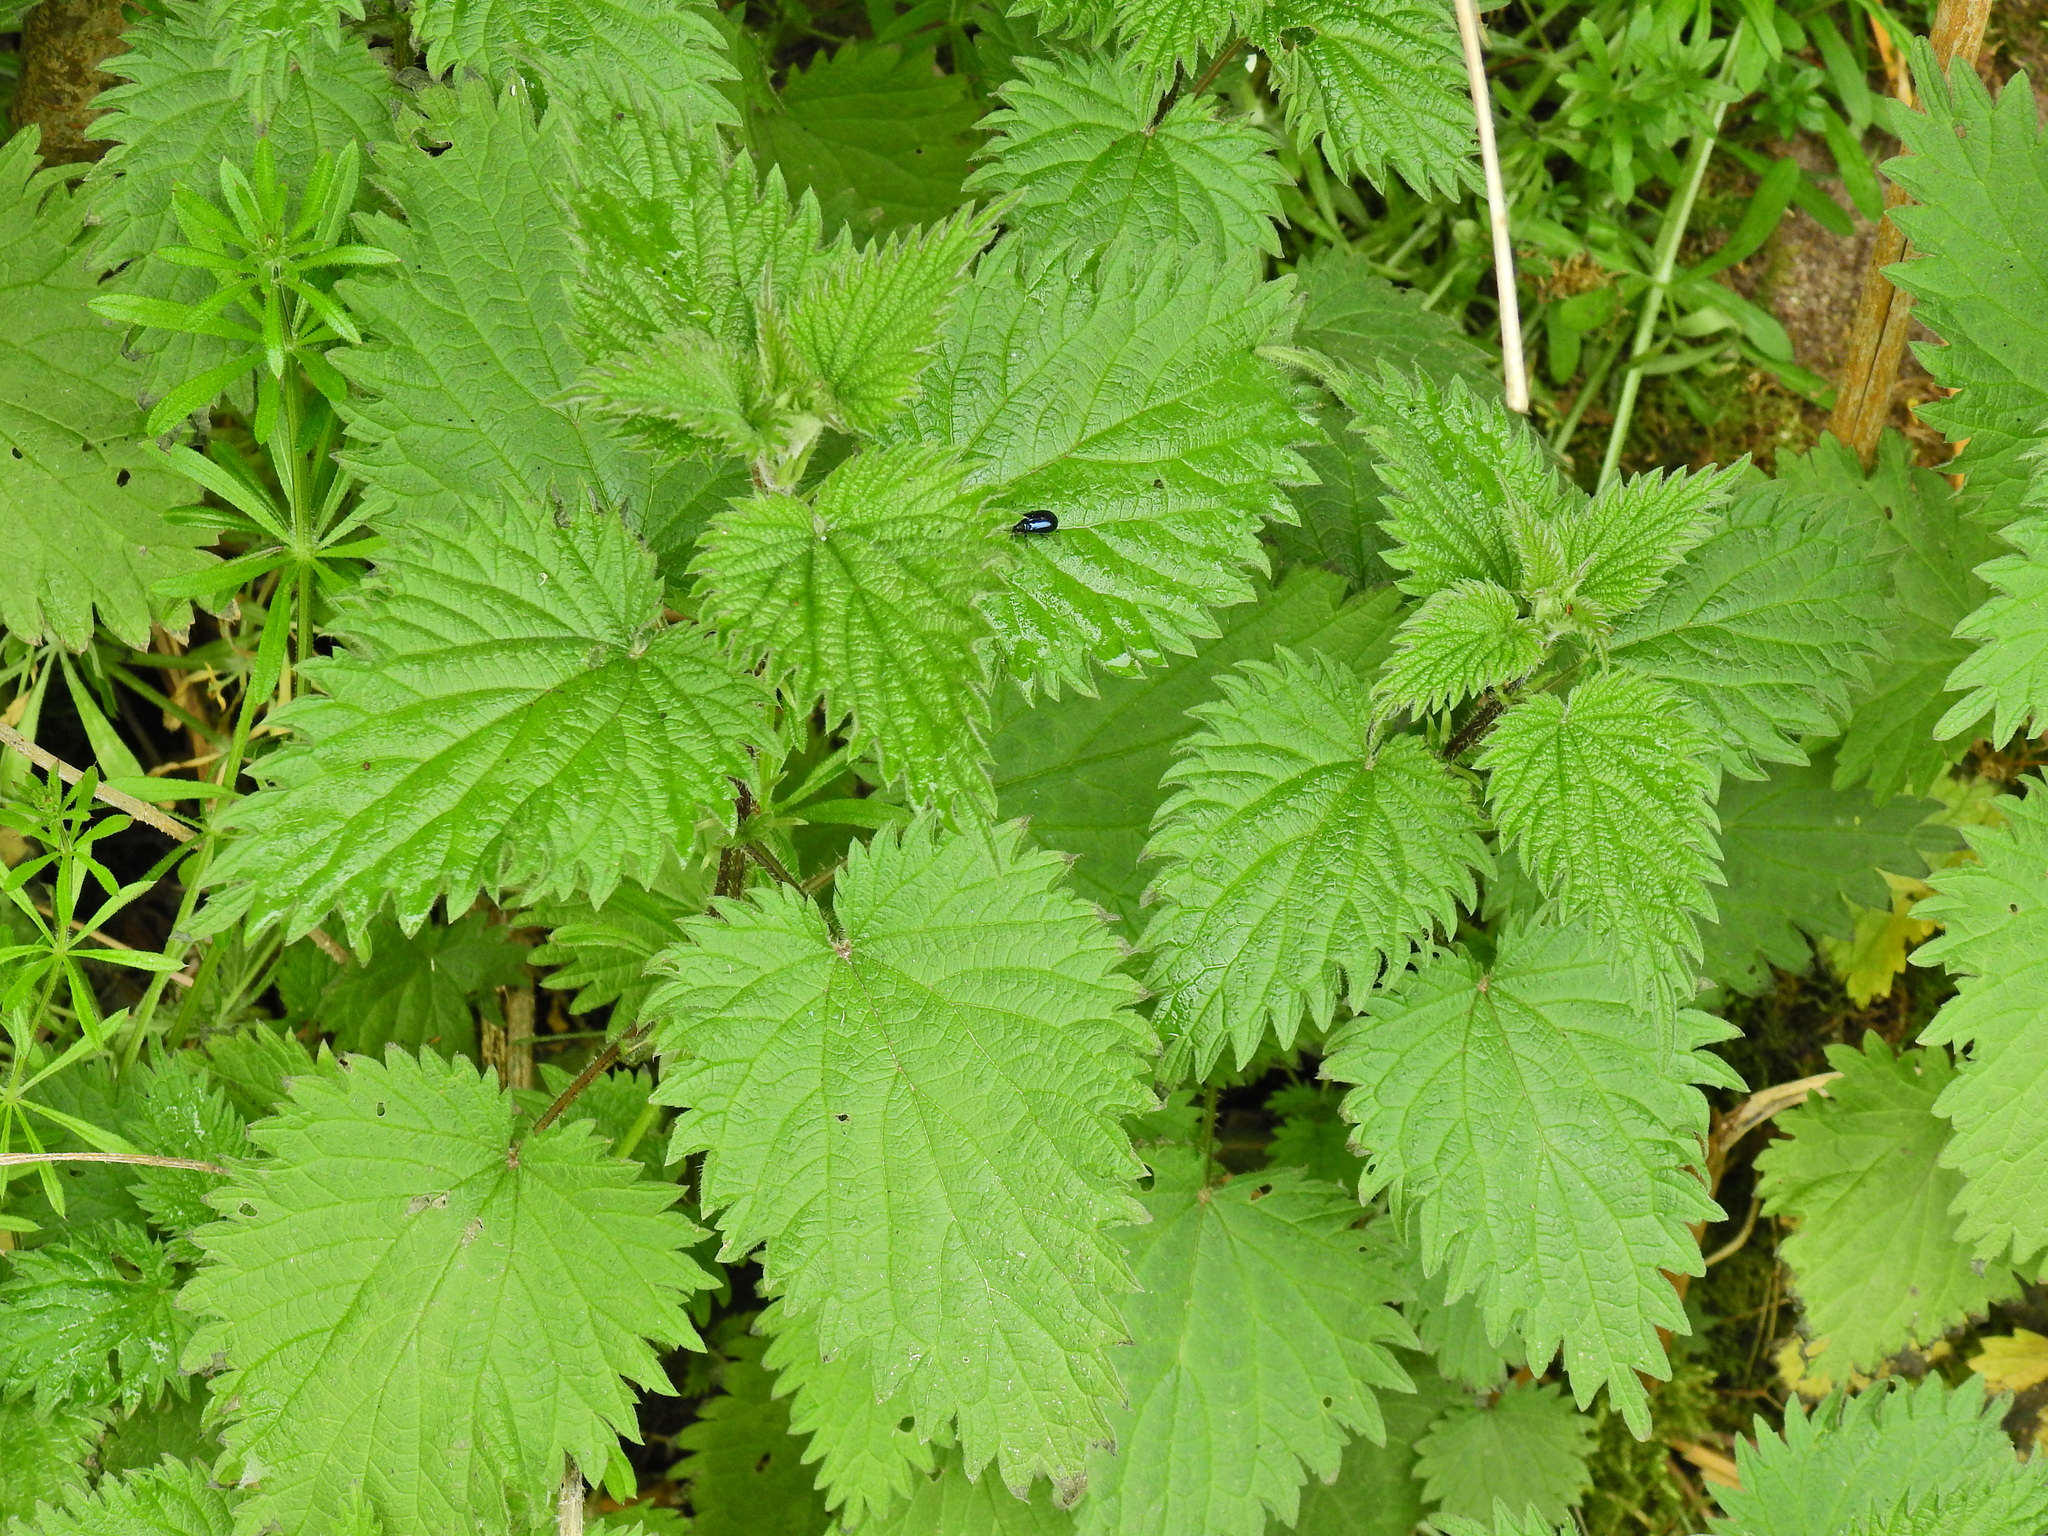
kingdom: Plantae
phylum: Tracheophyta
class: Magnoliopsida
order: Rosales
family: Urticaceae
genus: Urtica
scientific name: Urtica dioica
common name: Common nettle
